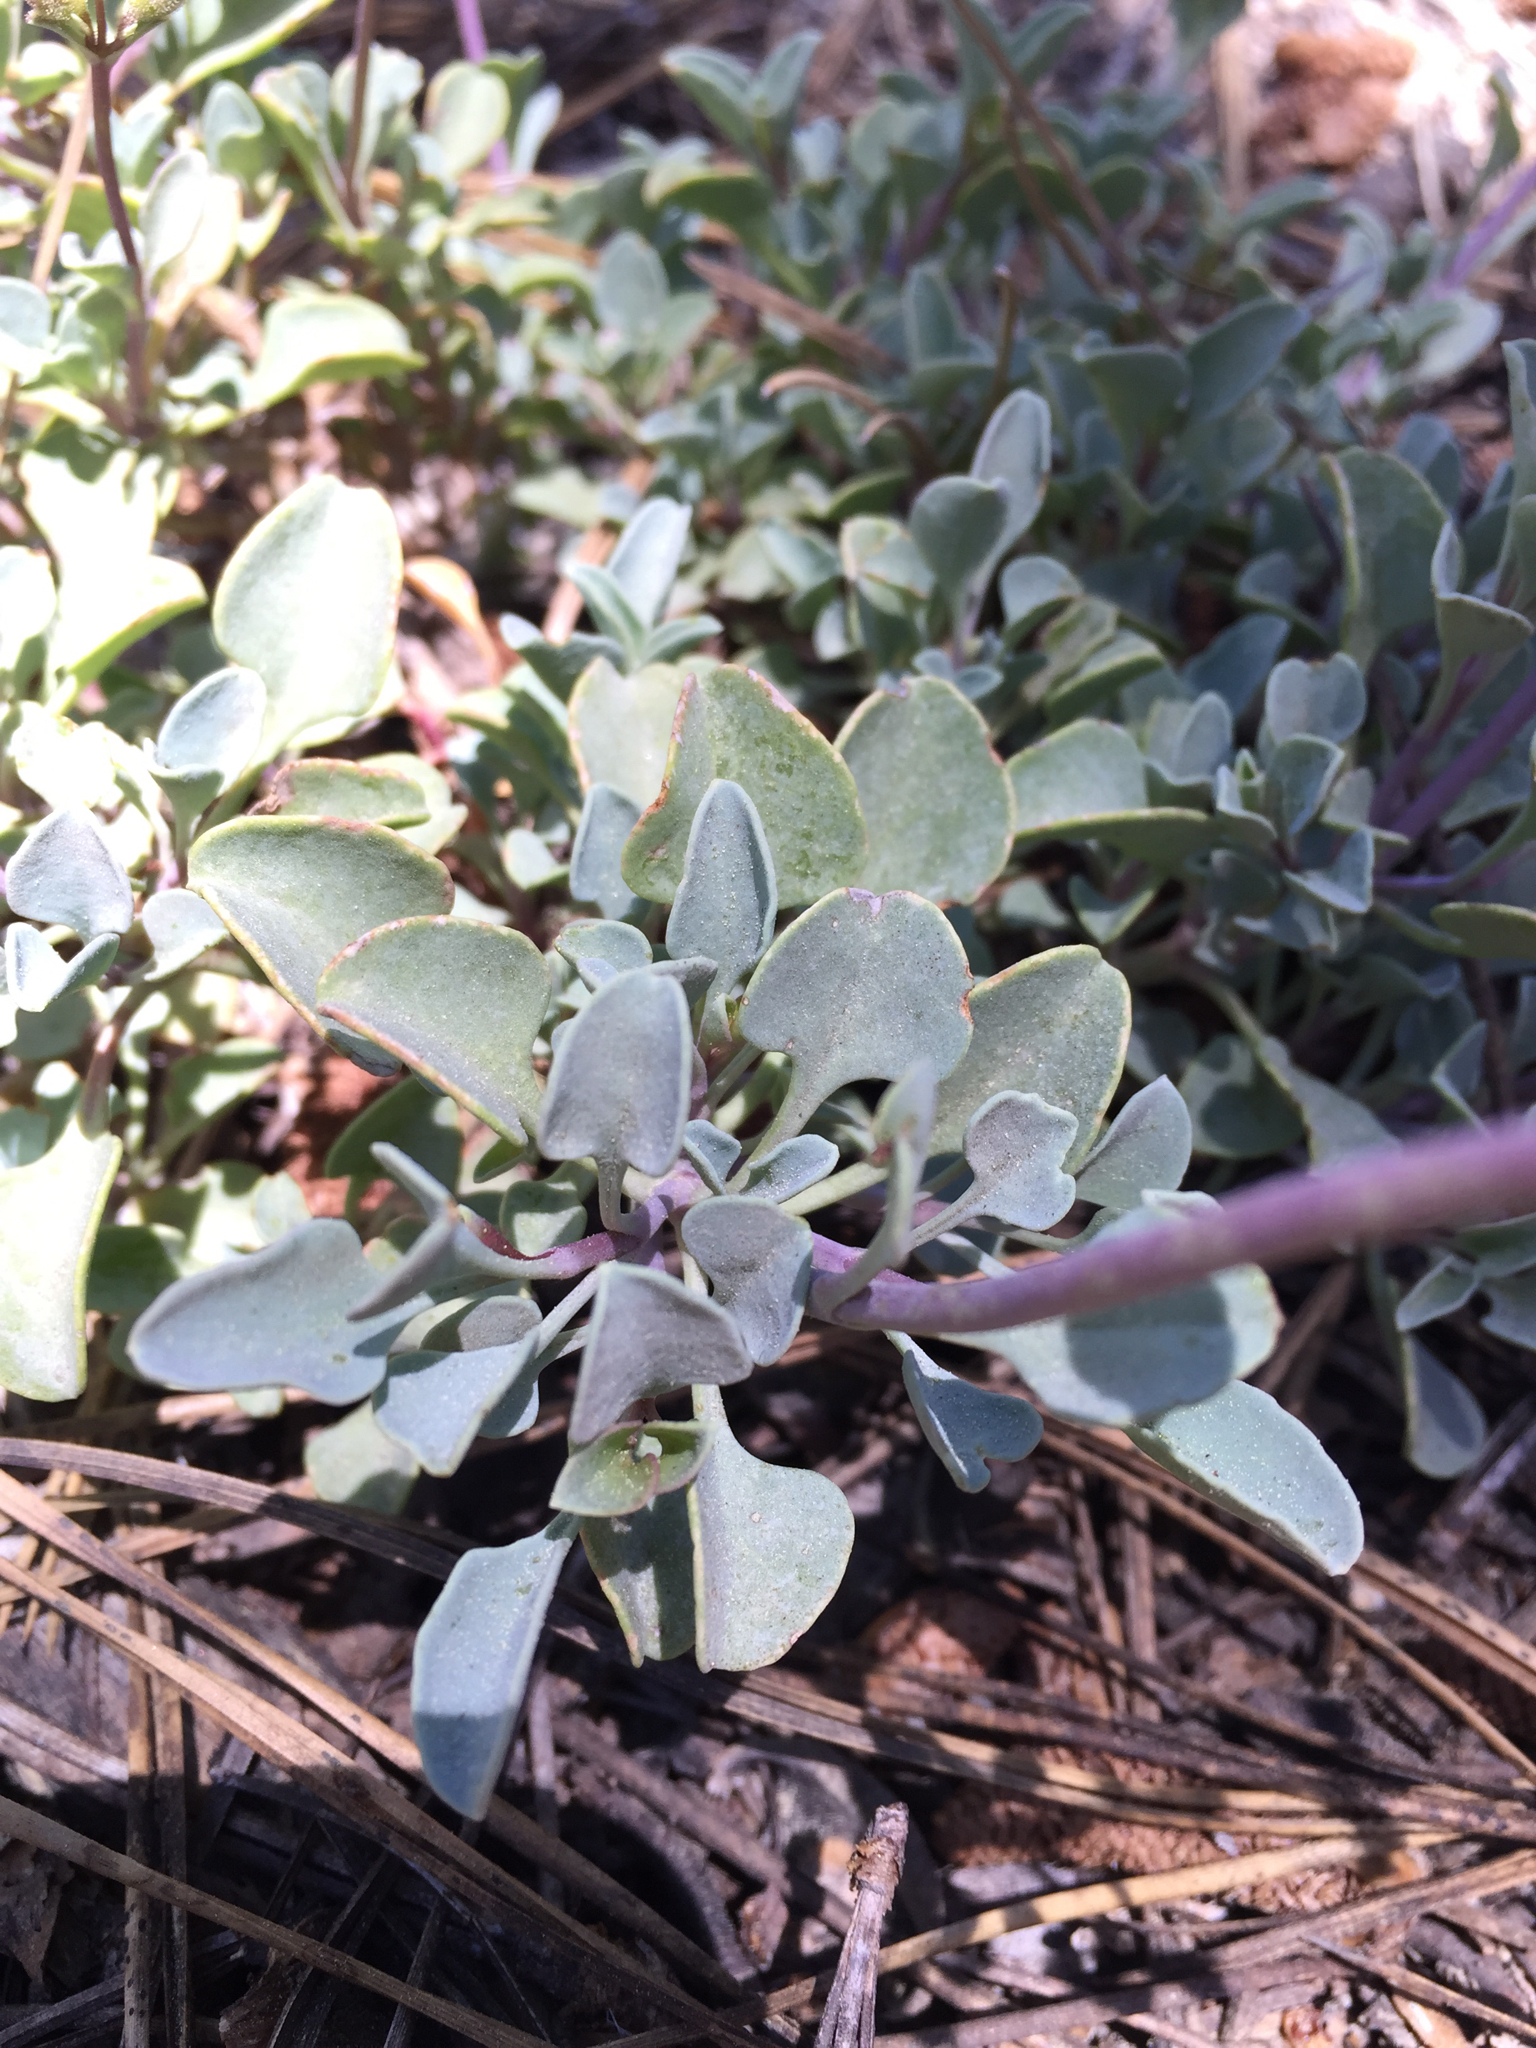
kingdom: Plantae
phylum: Tracheophyta
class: Magnoliopsida
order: Lamiales
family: Plantaginaceae
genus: Penstemon
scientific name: Penstemon caesius
